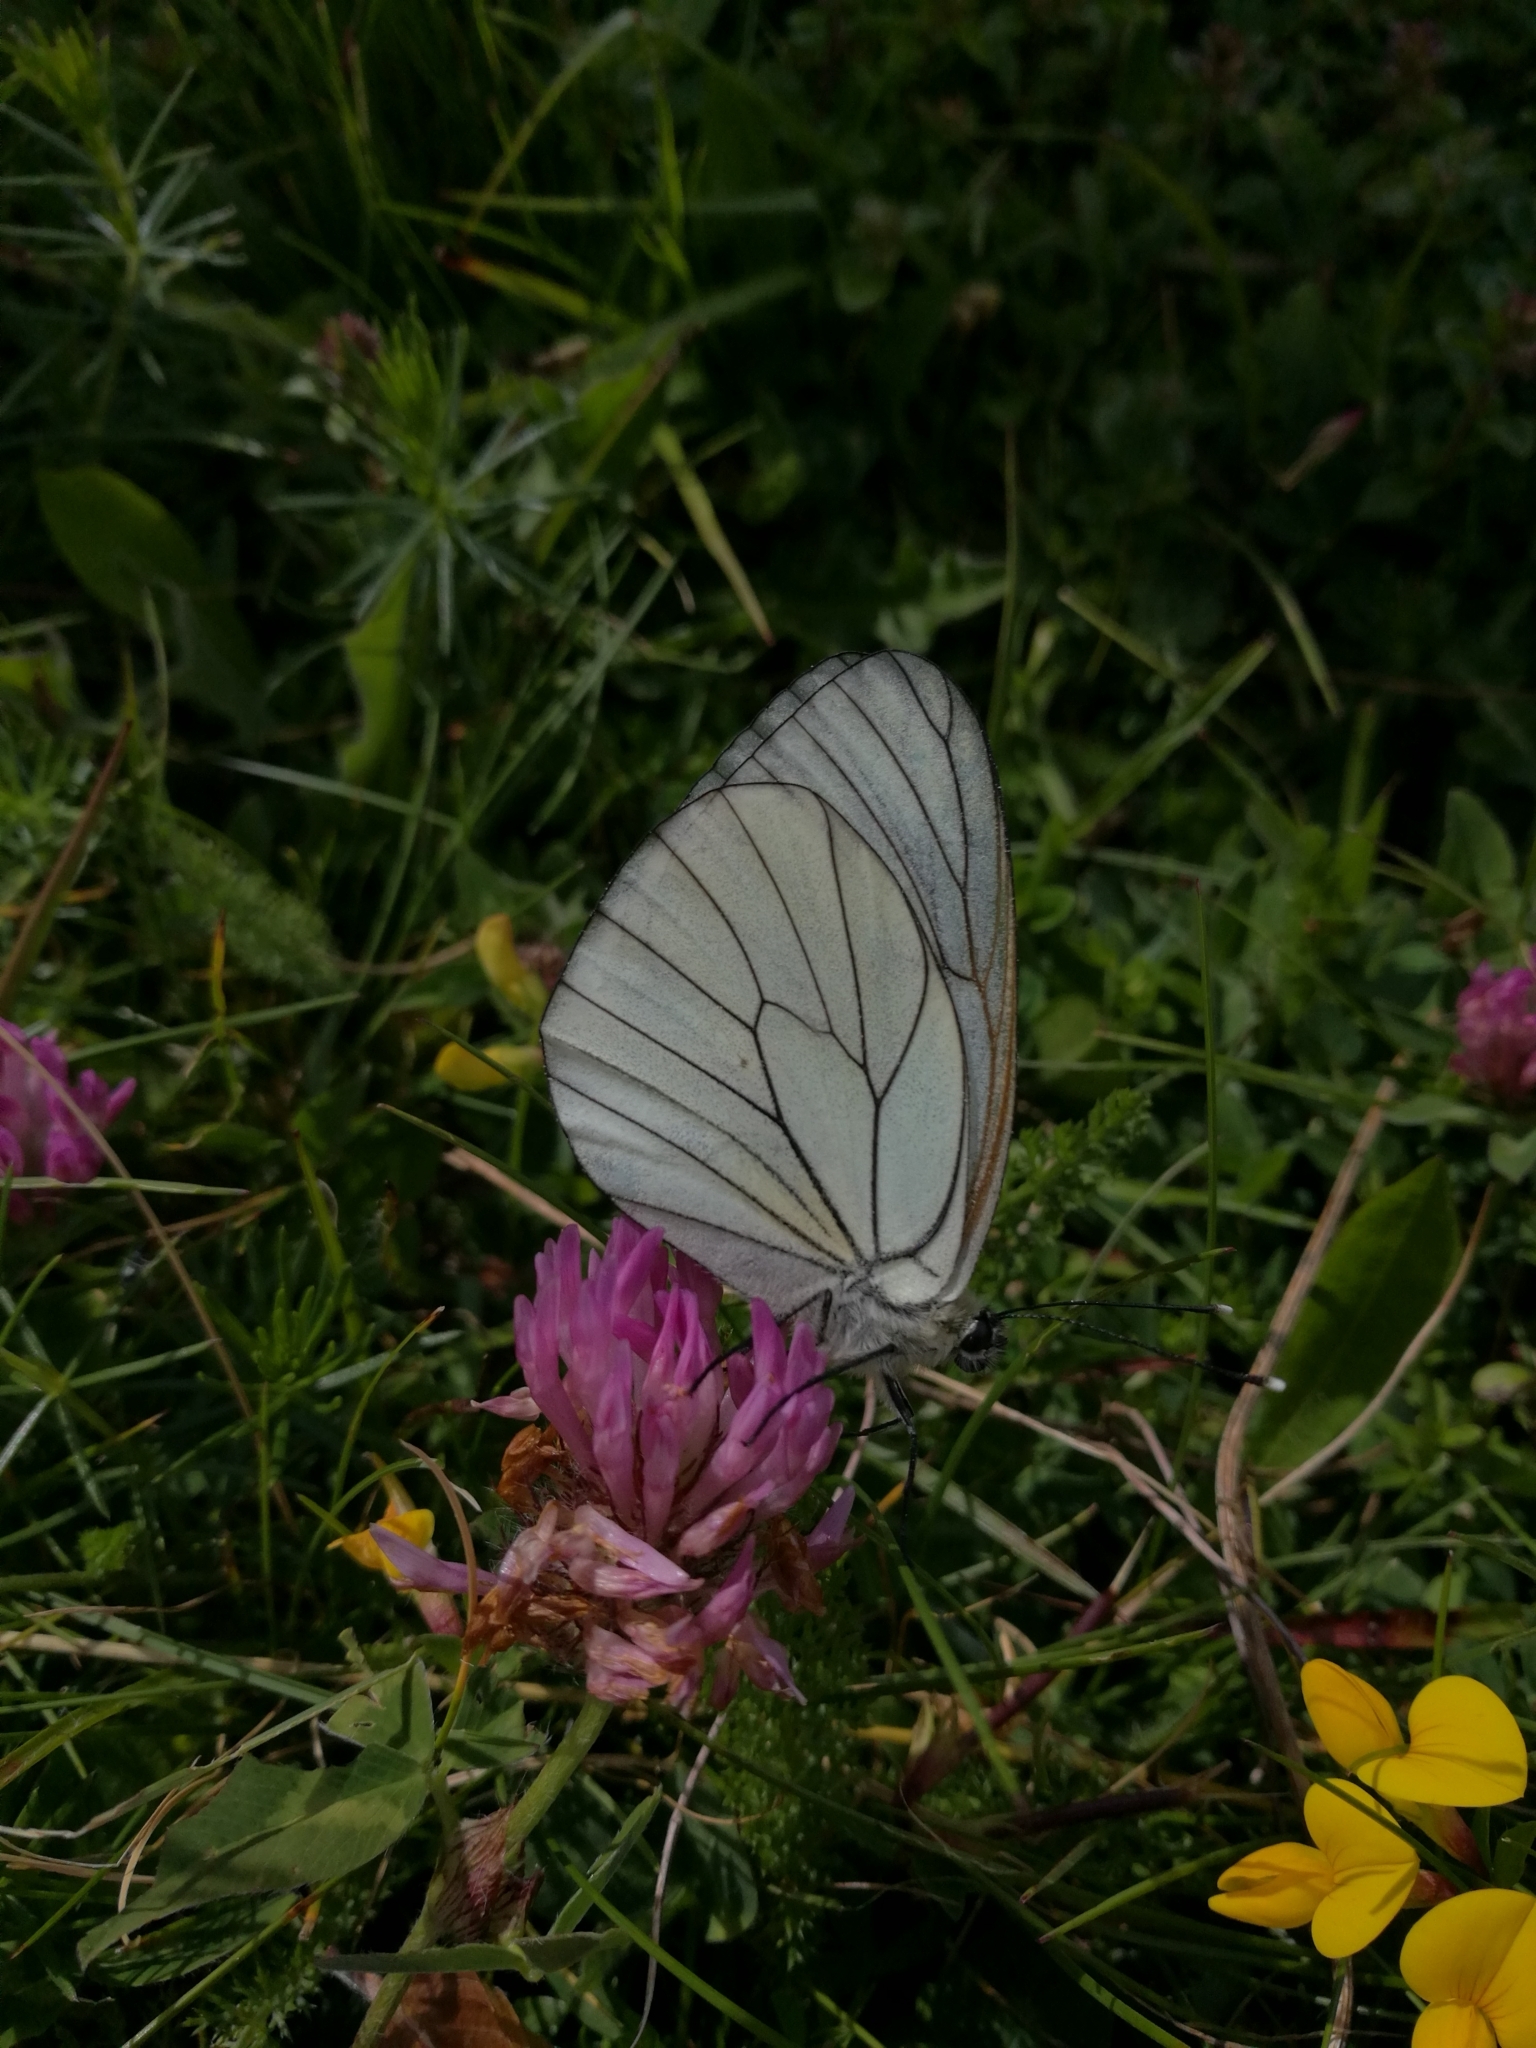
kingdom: Animalia
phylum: Arthropoda
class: Insecta
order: Lepidoptera
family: Pieridae
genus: Aporia
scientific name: Aporia crataegi
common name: Black-veined white
